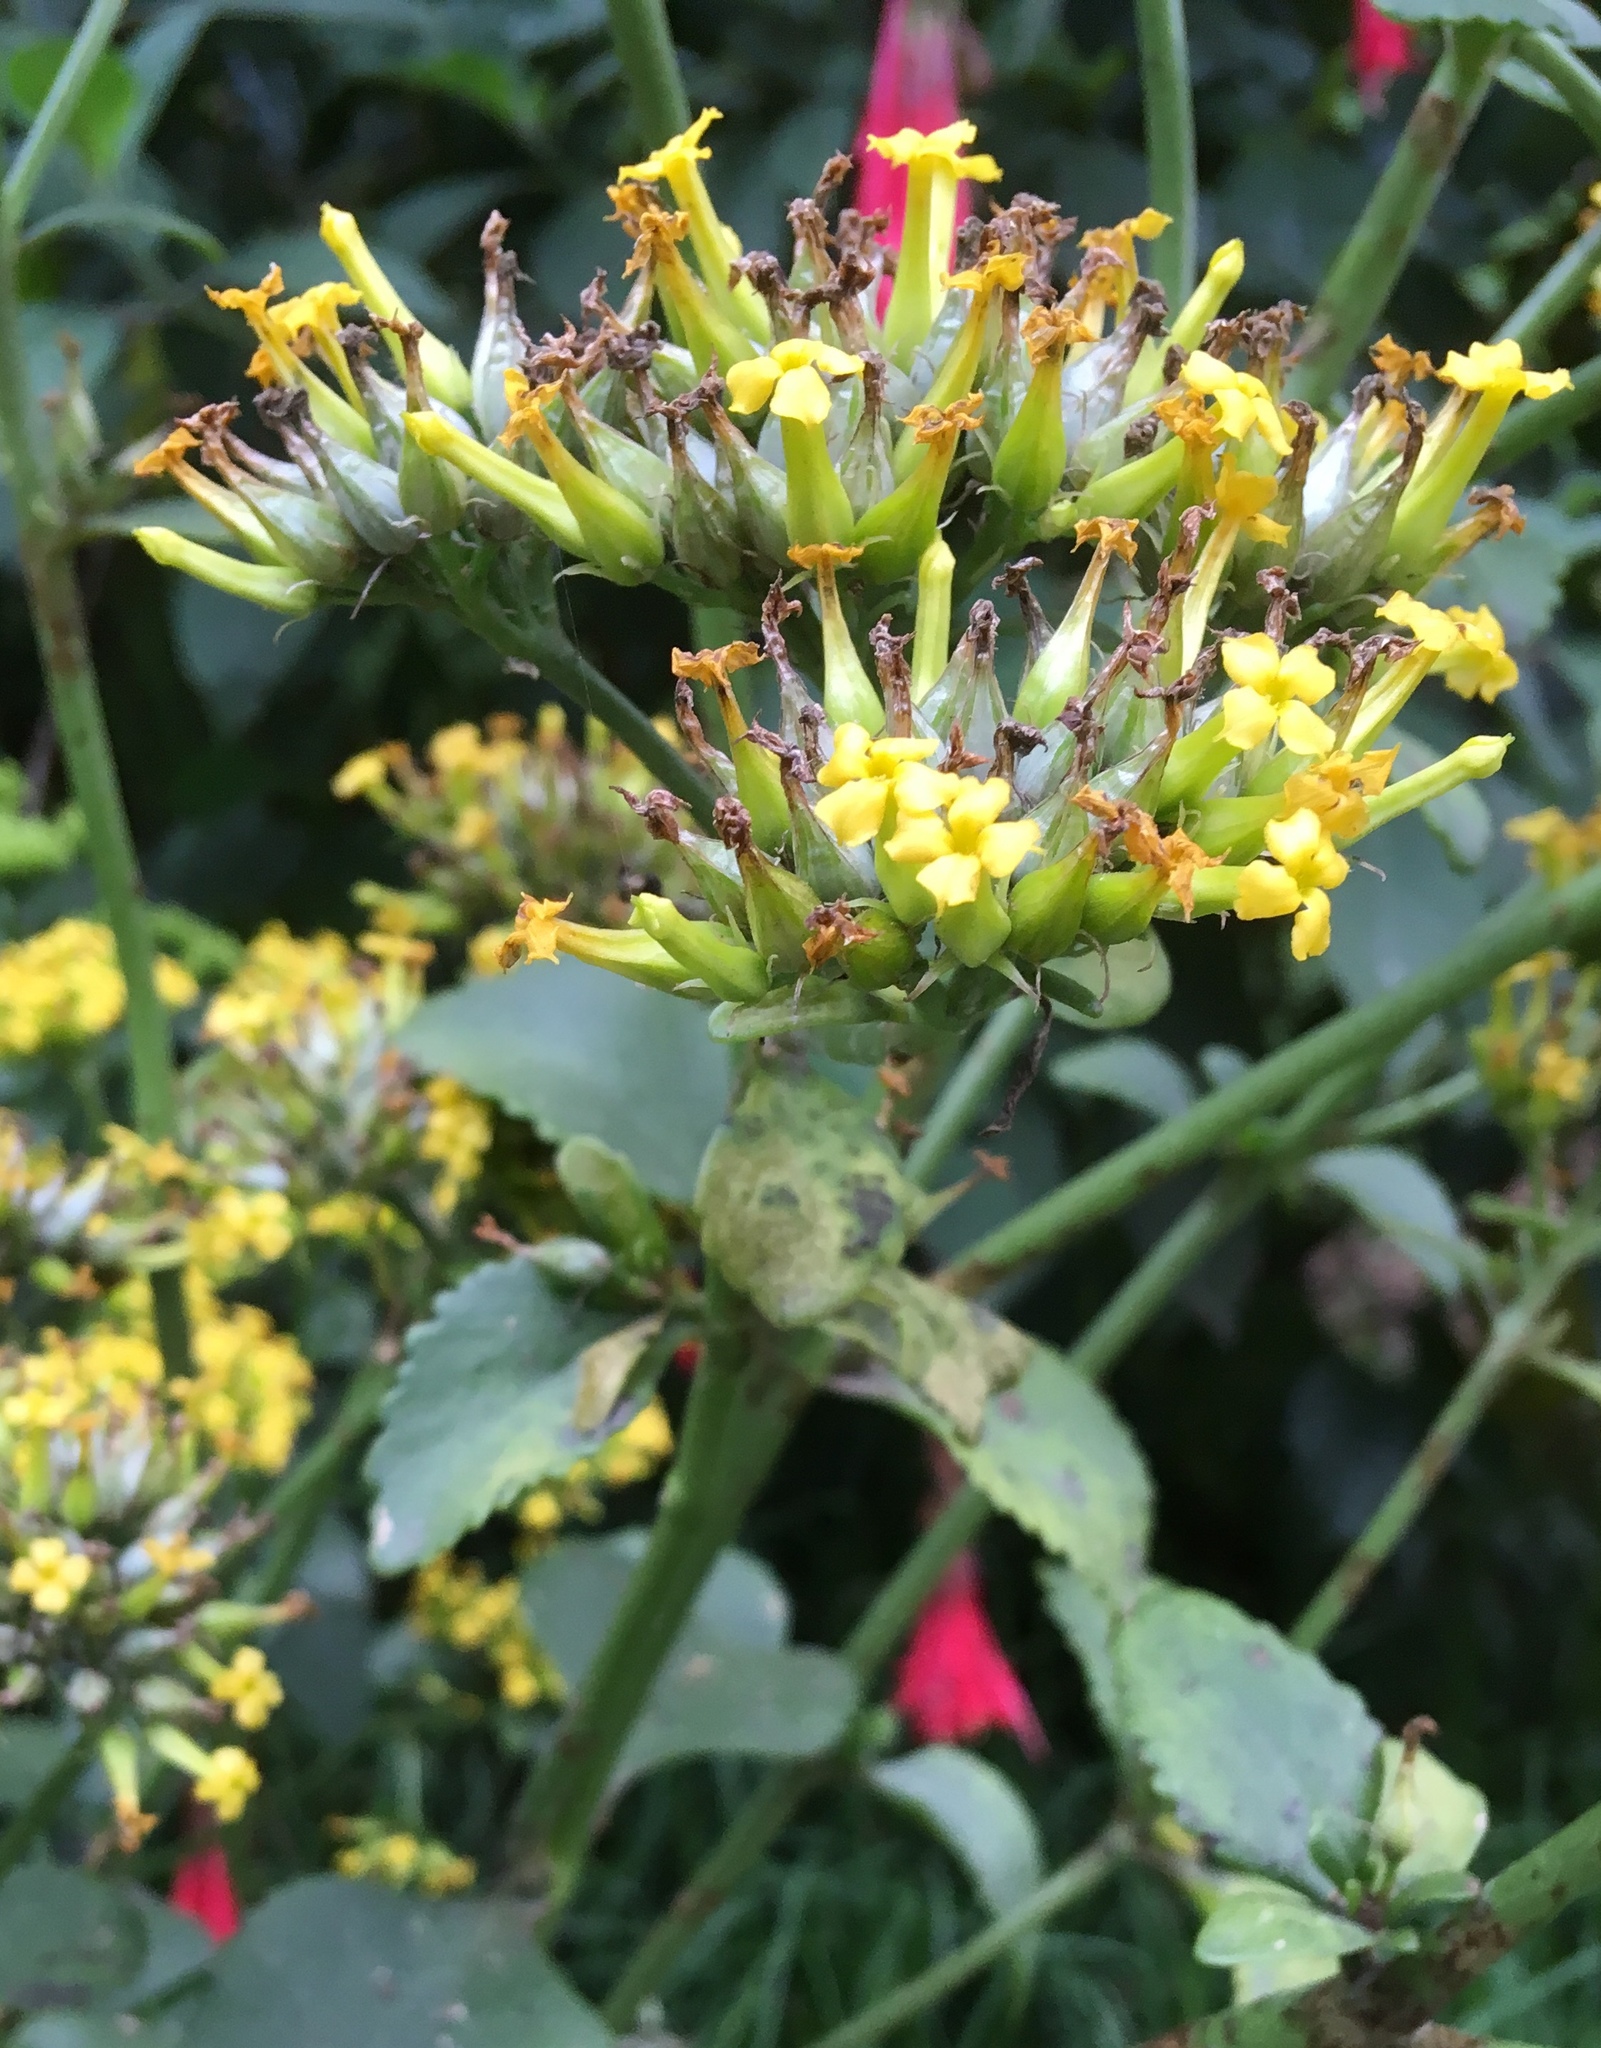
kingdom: Plantae
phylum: Tracheophyta
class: Magnoliopsida
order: Saxifragales
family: Crassulaceae
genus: Kalanchoe
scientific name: Kalanchoe densiflora
